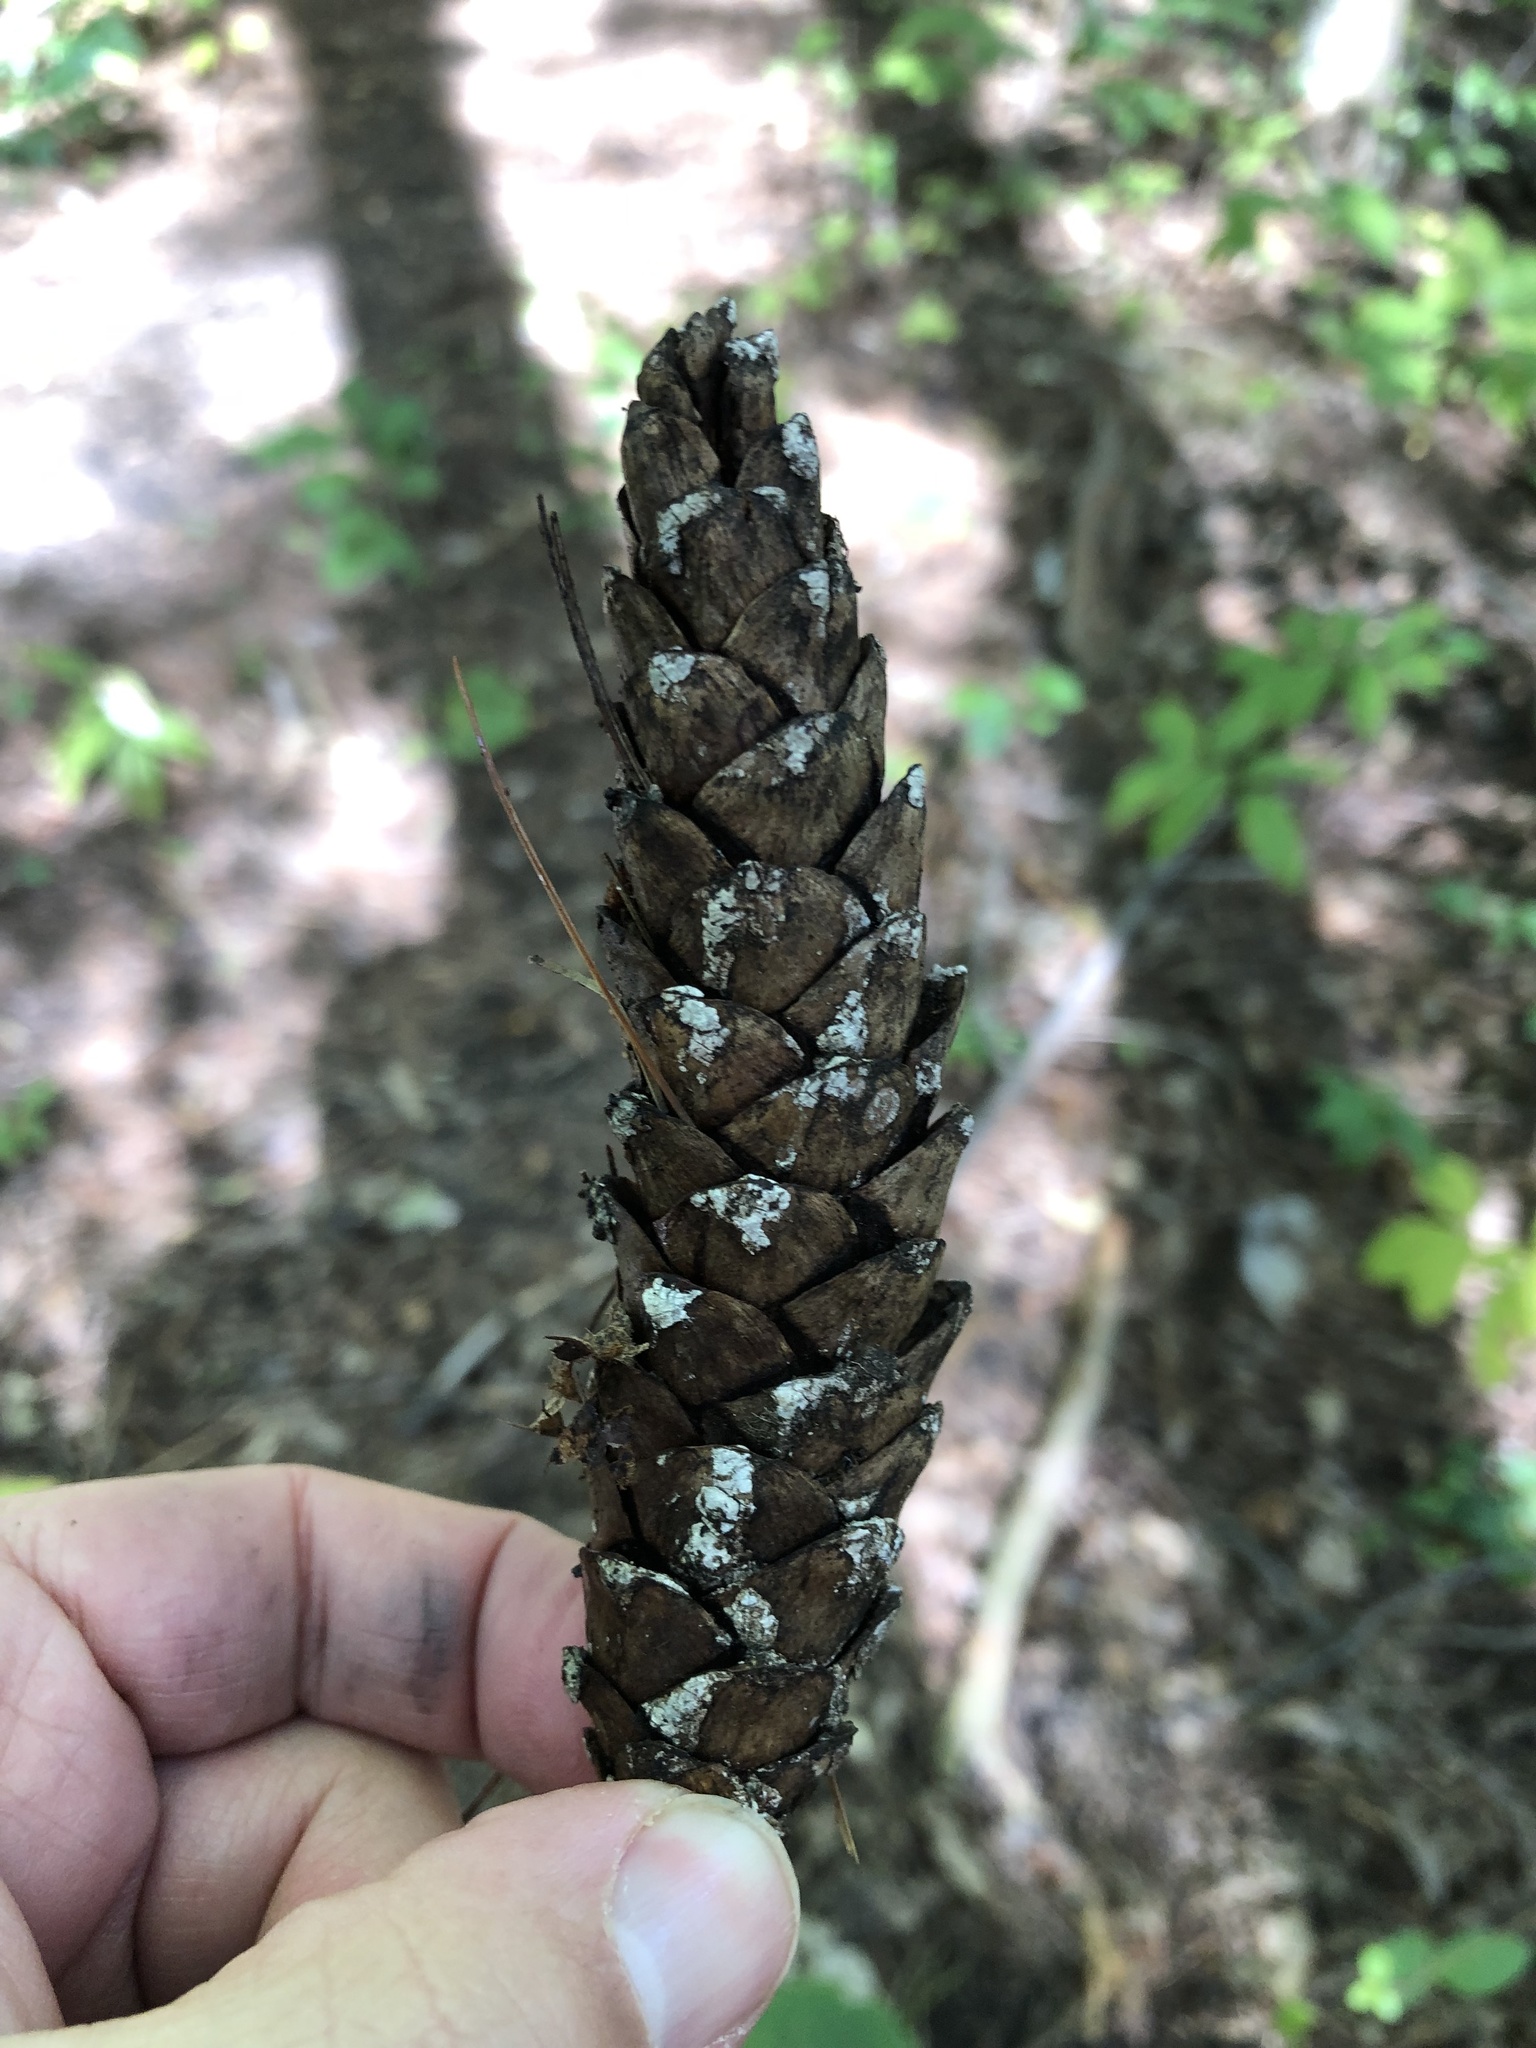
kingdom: Plantae
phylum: Tracheophyta
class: Pinopsida
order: Pinales
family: Pinaceae
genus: Pinus
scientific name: Pinus strobus
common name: Weymouth pine
